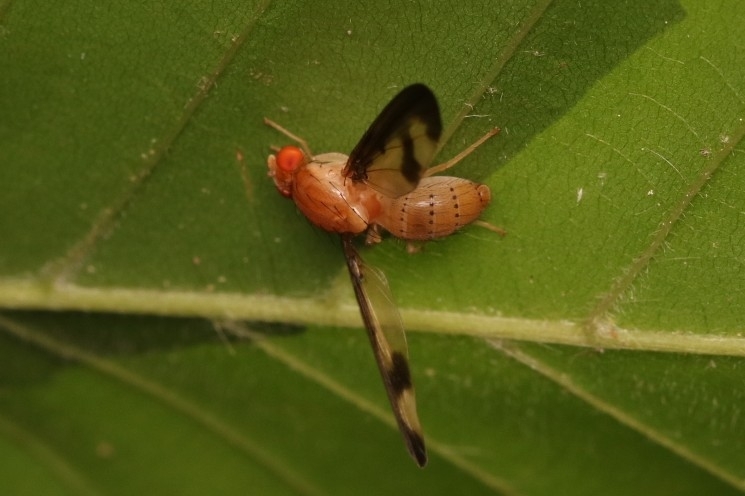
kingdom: Animalia
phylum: Arthropoda
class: Insecta
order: Diptera
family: Pallopteridae
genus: Toxonevra
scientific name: Toxonevra superba
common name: Antlered flutter fly
